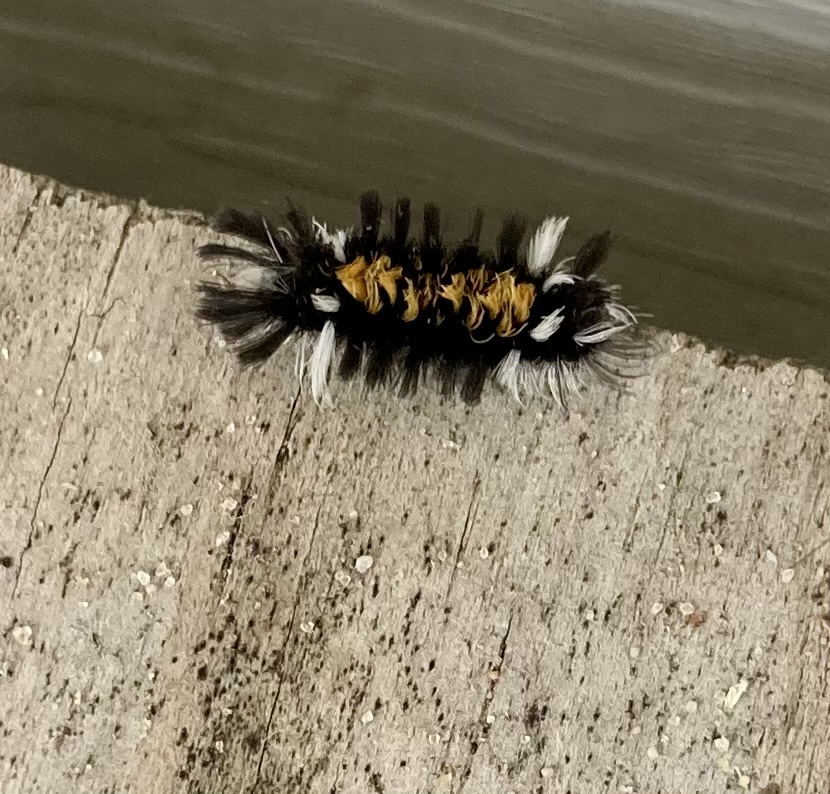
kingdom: Animalia
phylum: Arthropoda
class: Insecta
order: Lepidoptera
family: Erebidae
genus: Euchaetes
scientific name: Euchaetes egle
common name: Milkweed tussock moth
